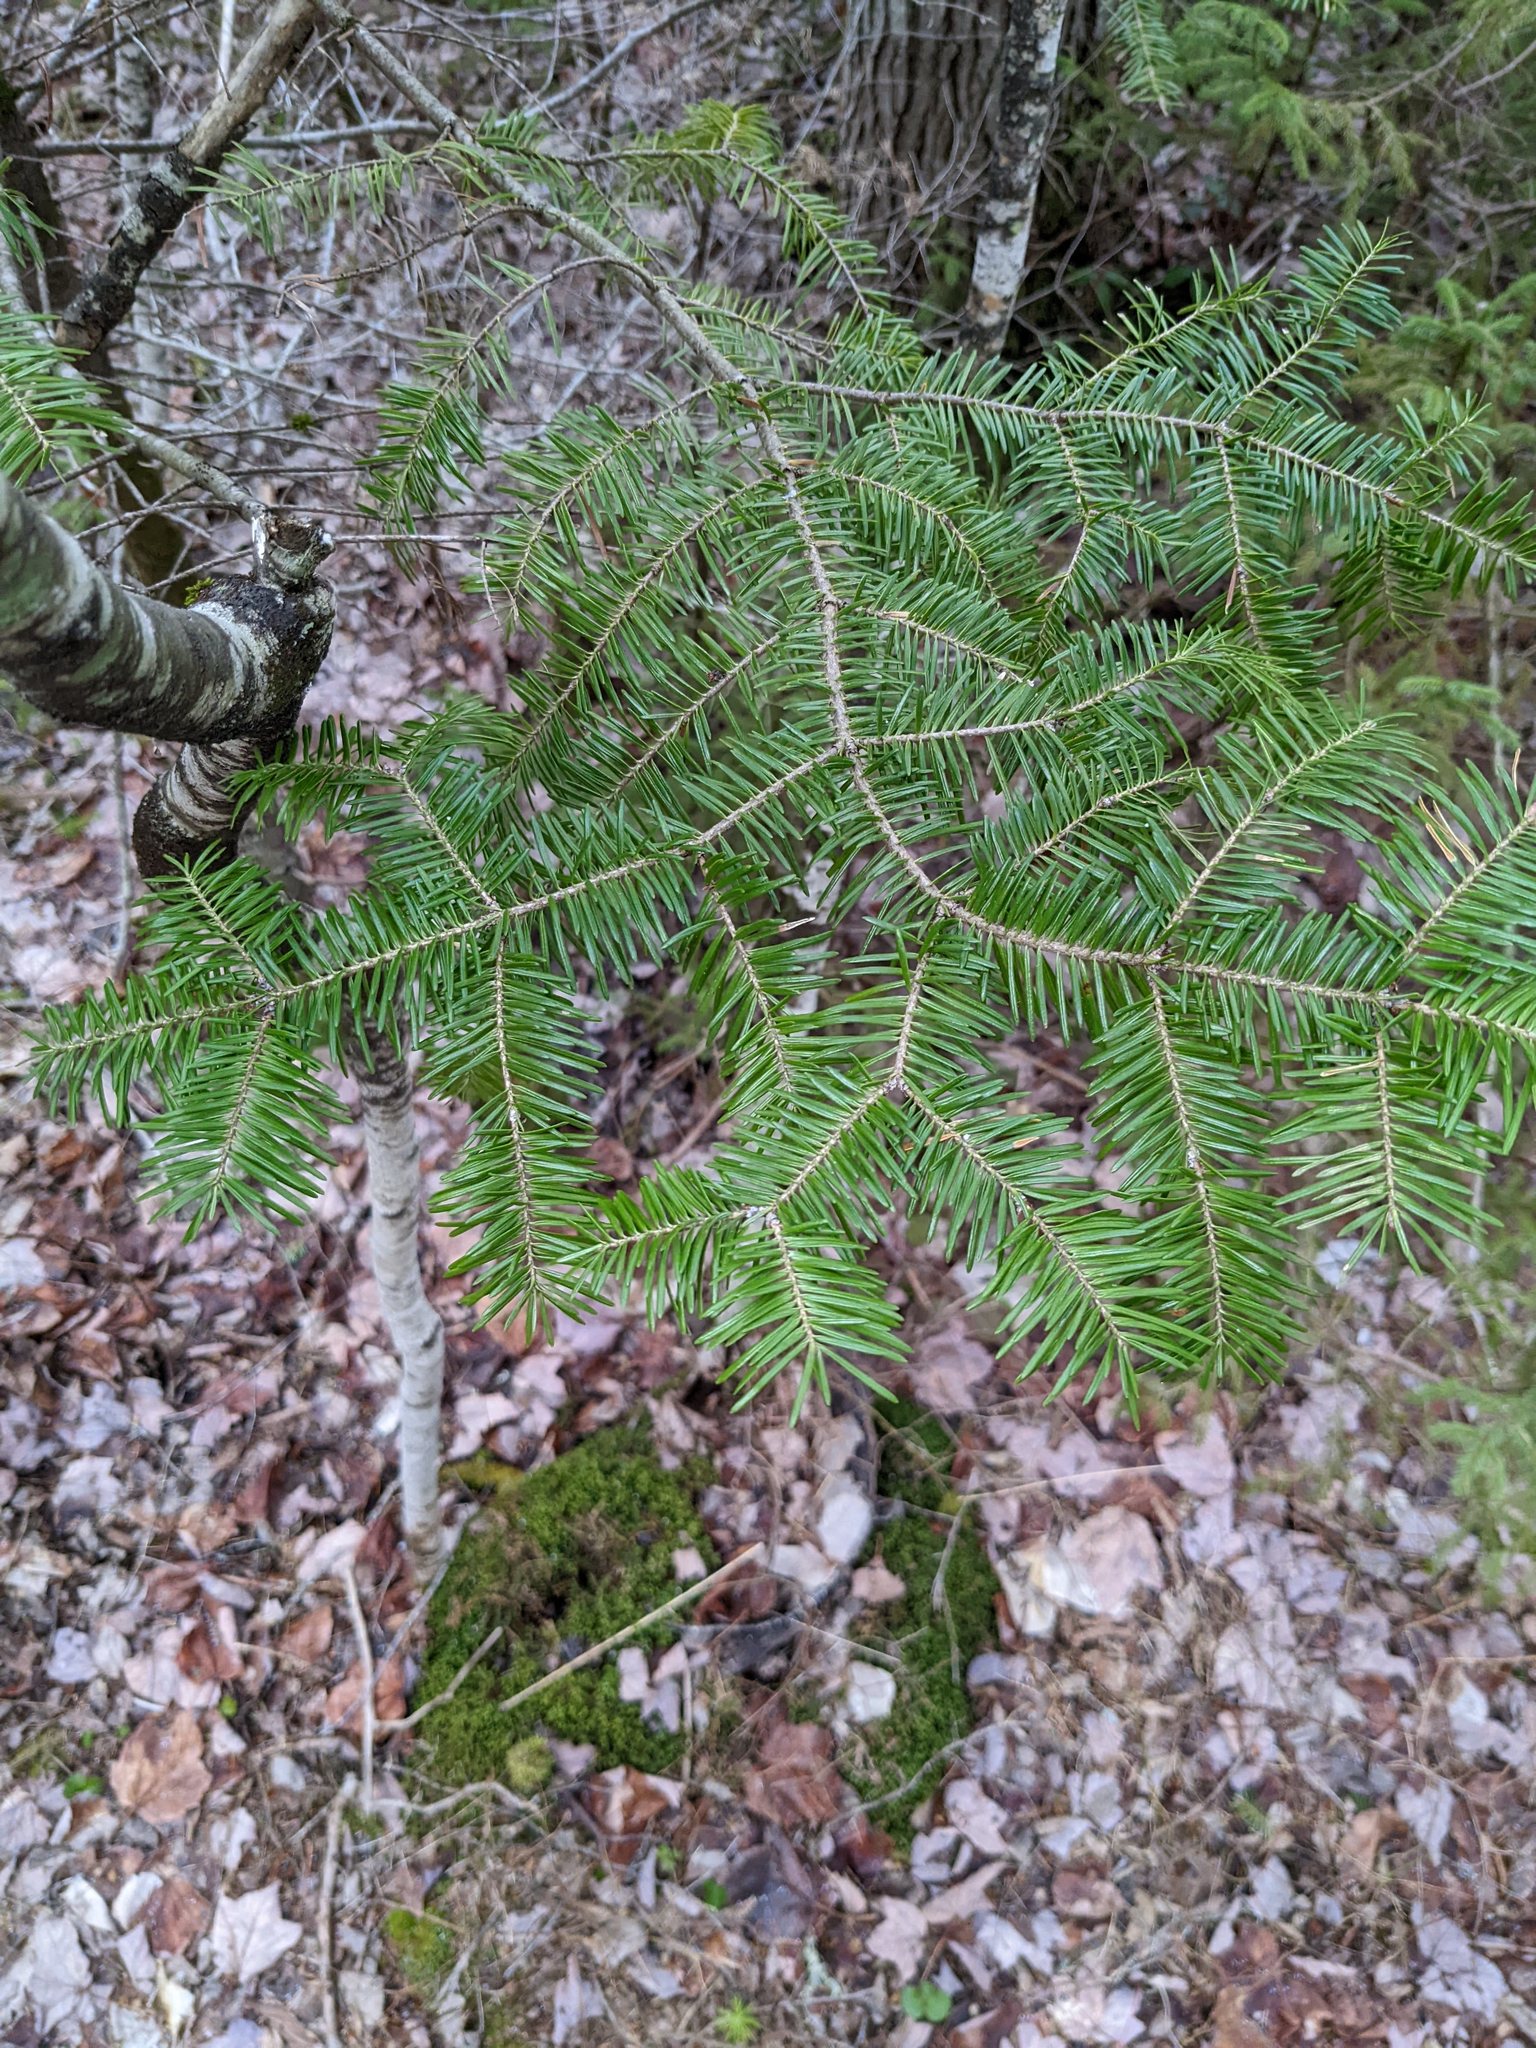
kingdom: Plantae
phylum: Tracheophyta
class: Pinopsida
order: Pinales
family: Pinaceae
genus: Abies
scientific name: Abies balsamea
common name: Balsam fir
